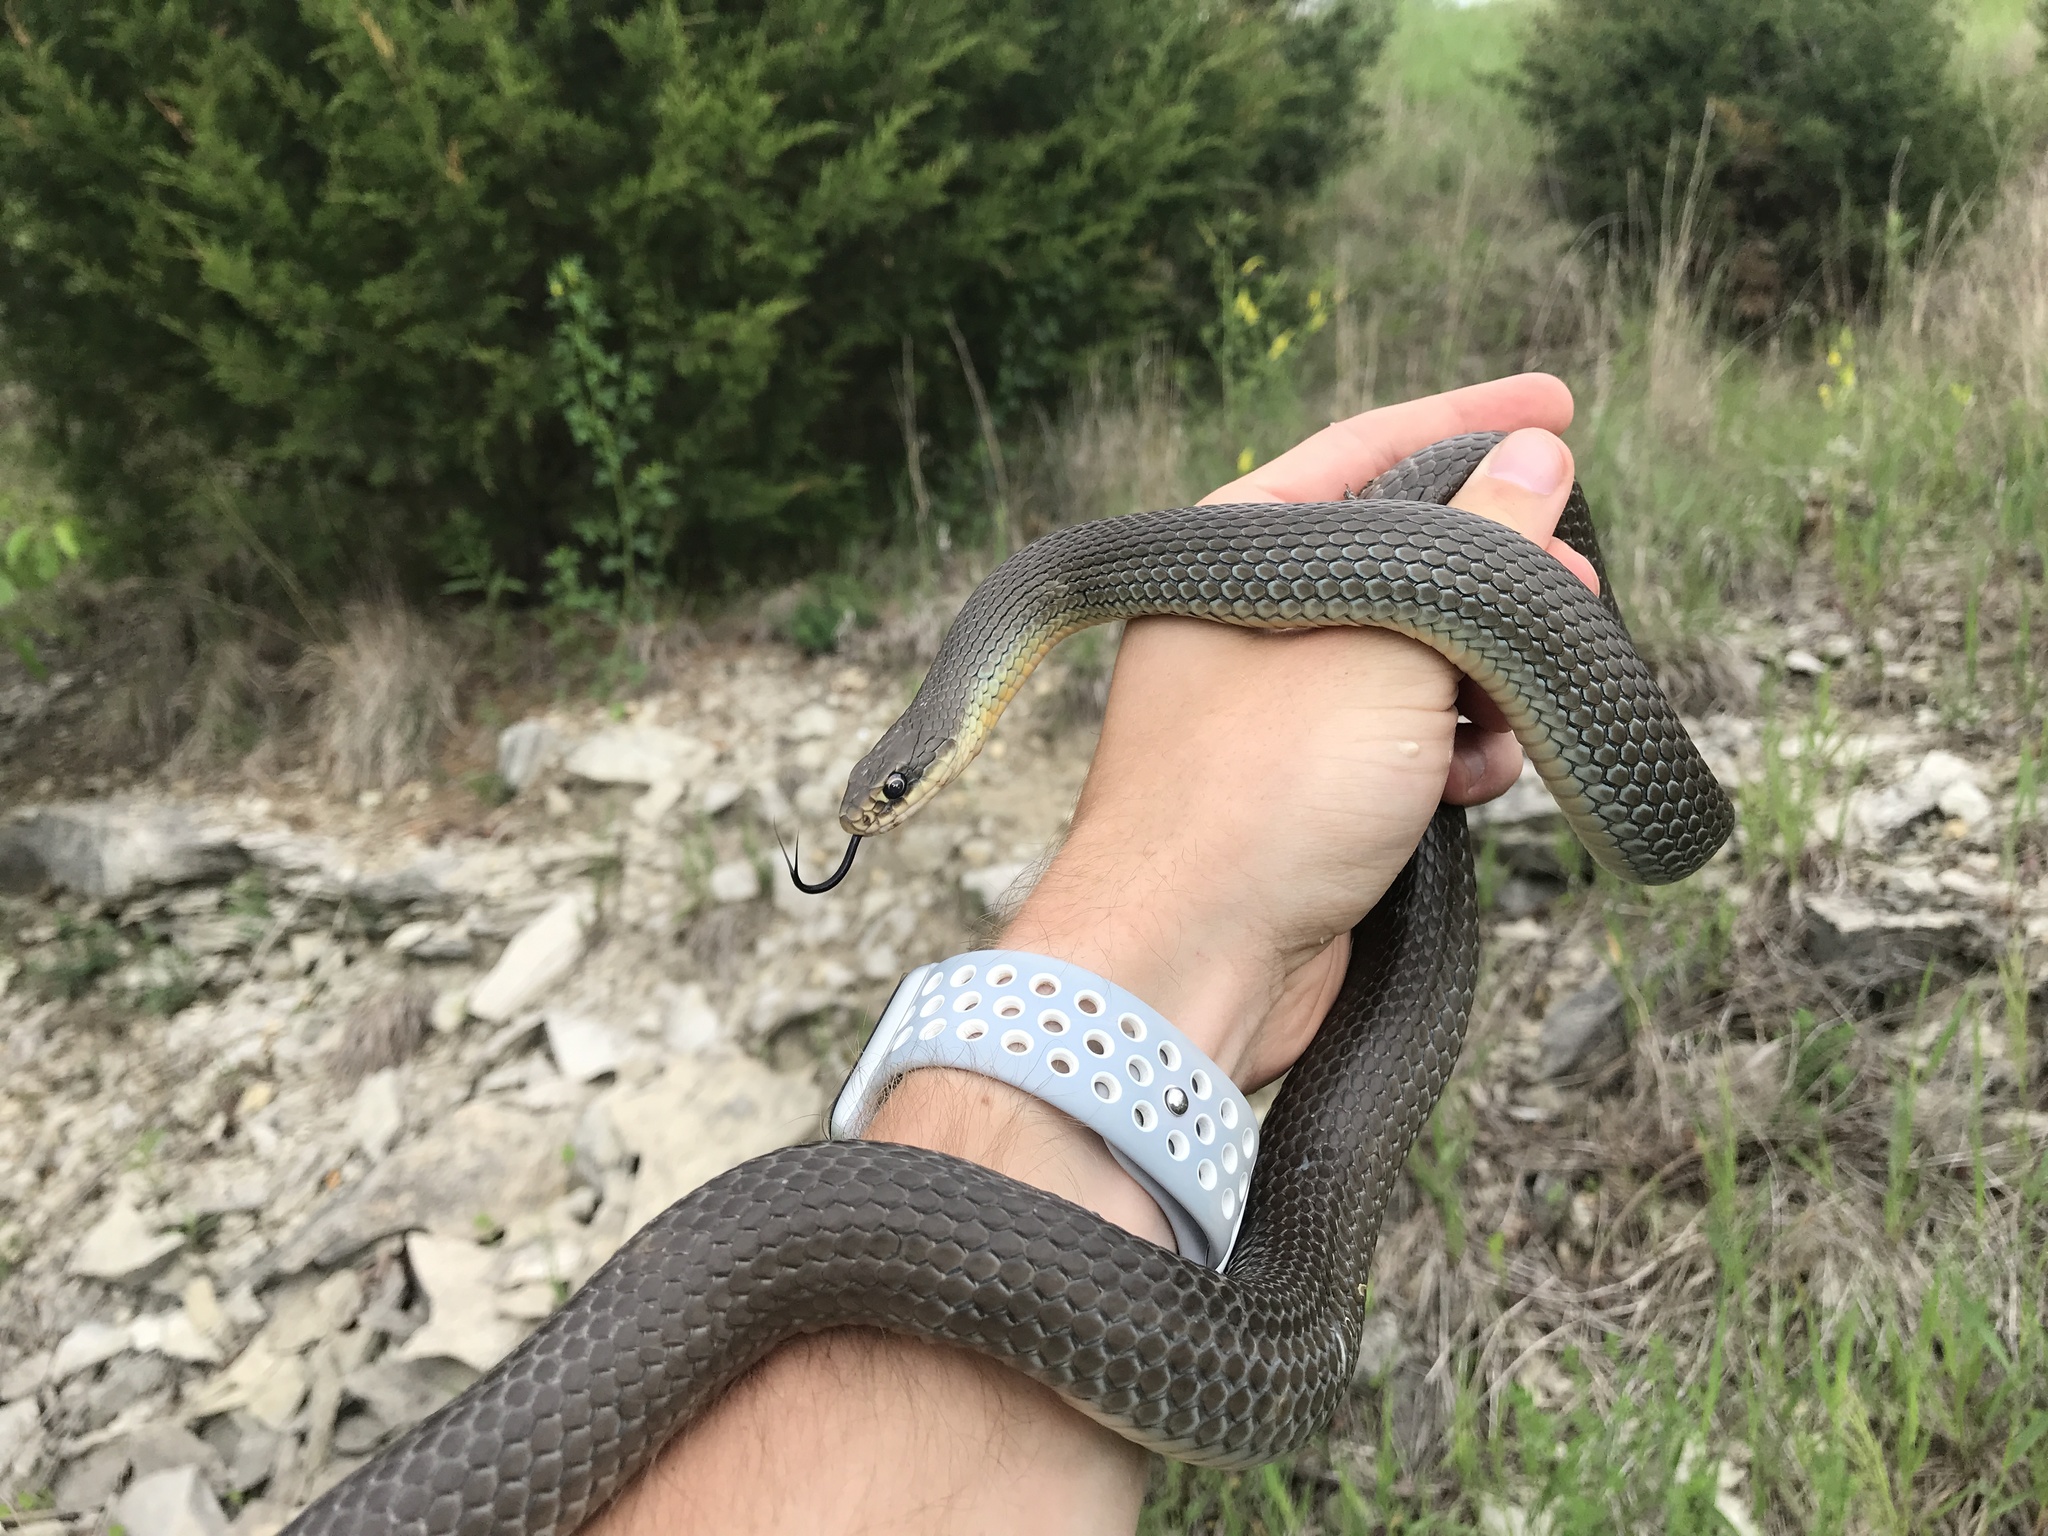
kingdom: Animalia
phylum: Chordata
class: Squamata
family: Colubridae
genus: Coluber
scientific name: Coluber constrictor
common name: Eastern racer
